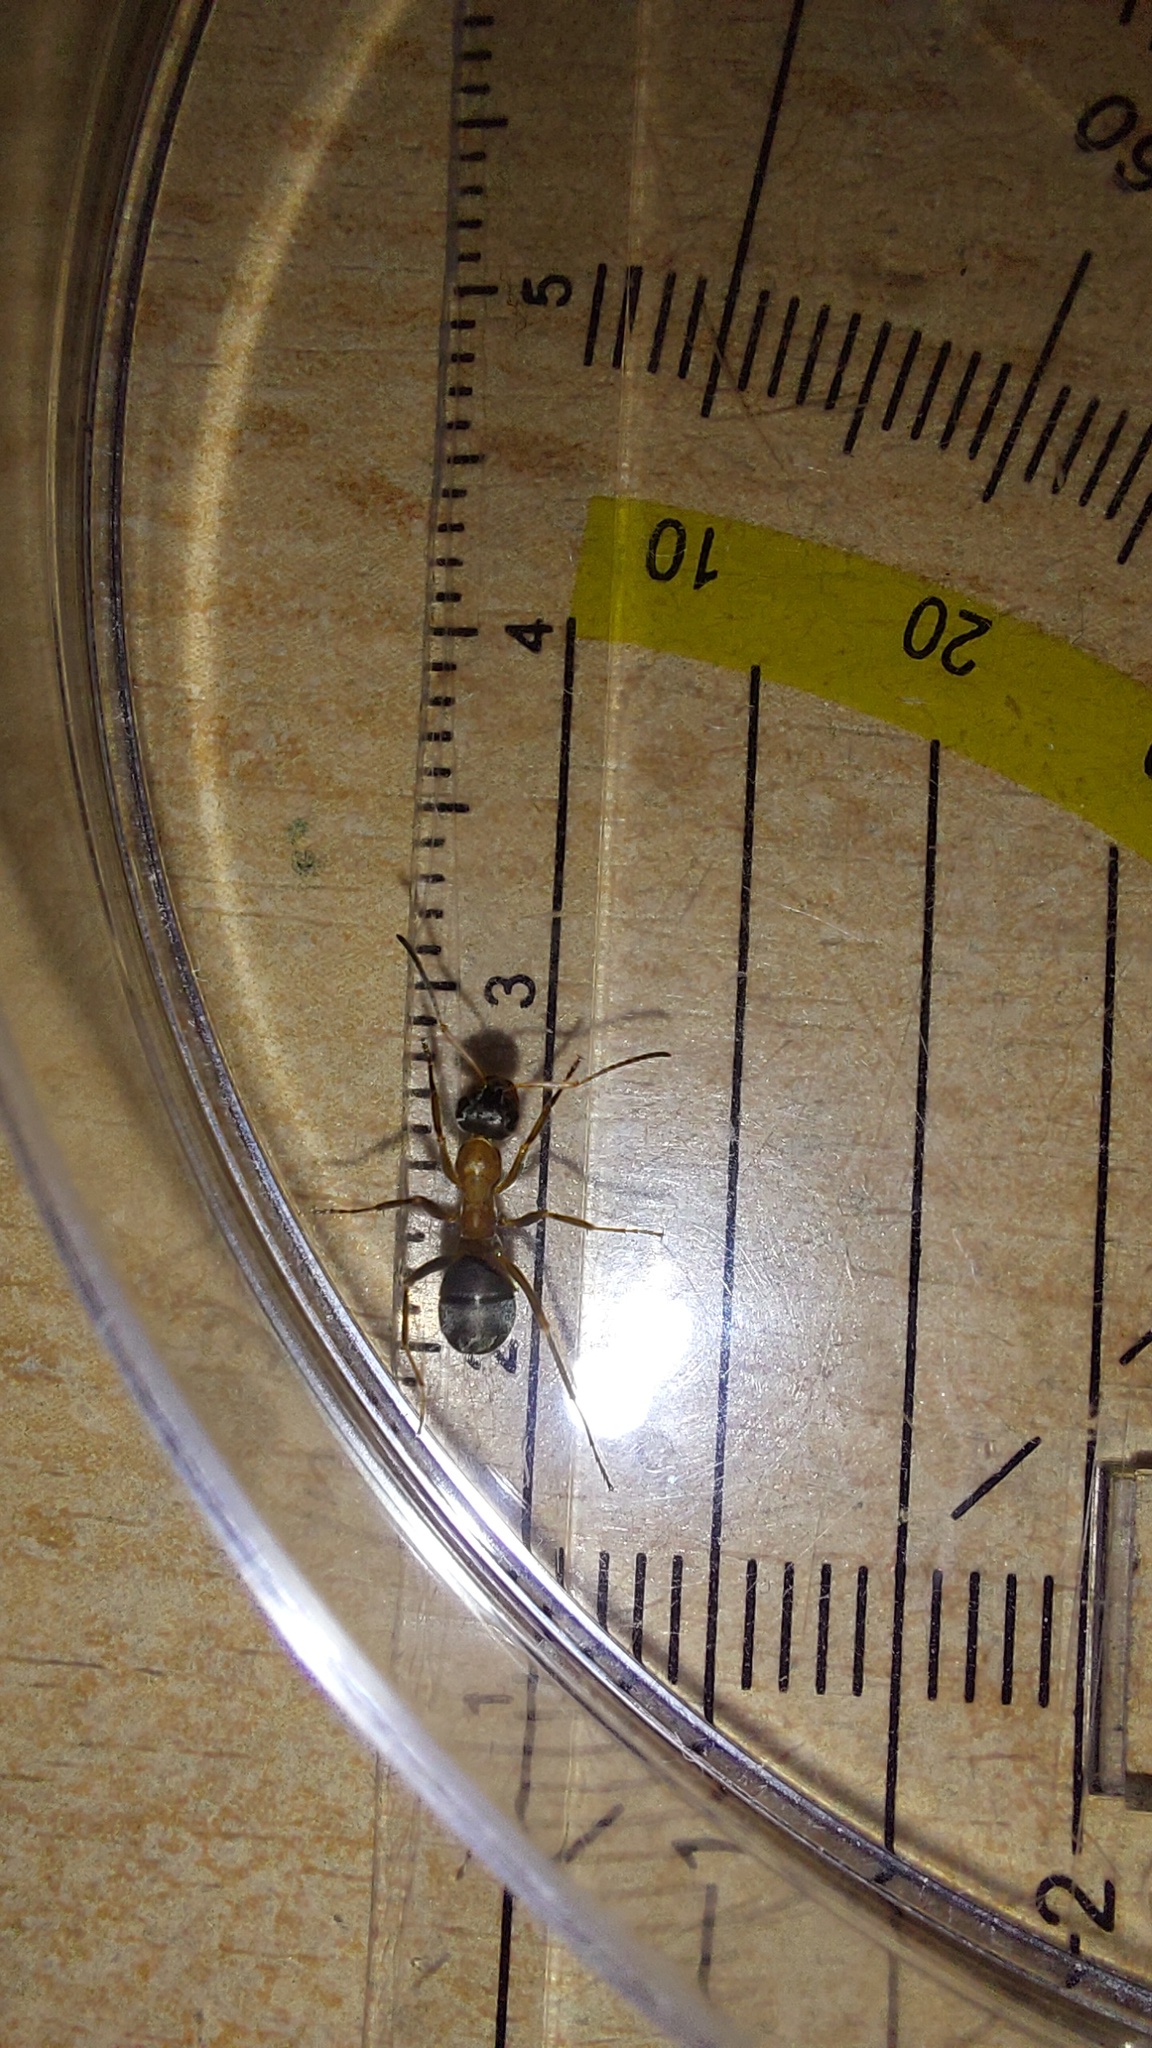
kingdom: Animalia
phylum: Arthropoda
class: Insecta
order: Hymenoptera
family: Formicidae
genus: Formica
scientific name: Formica rufibarbis
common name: Red barbed ant
